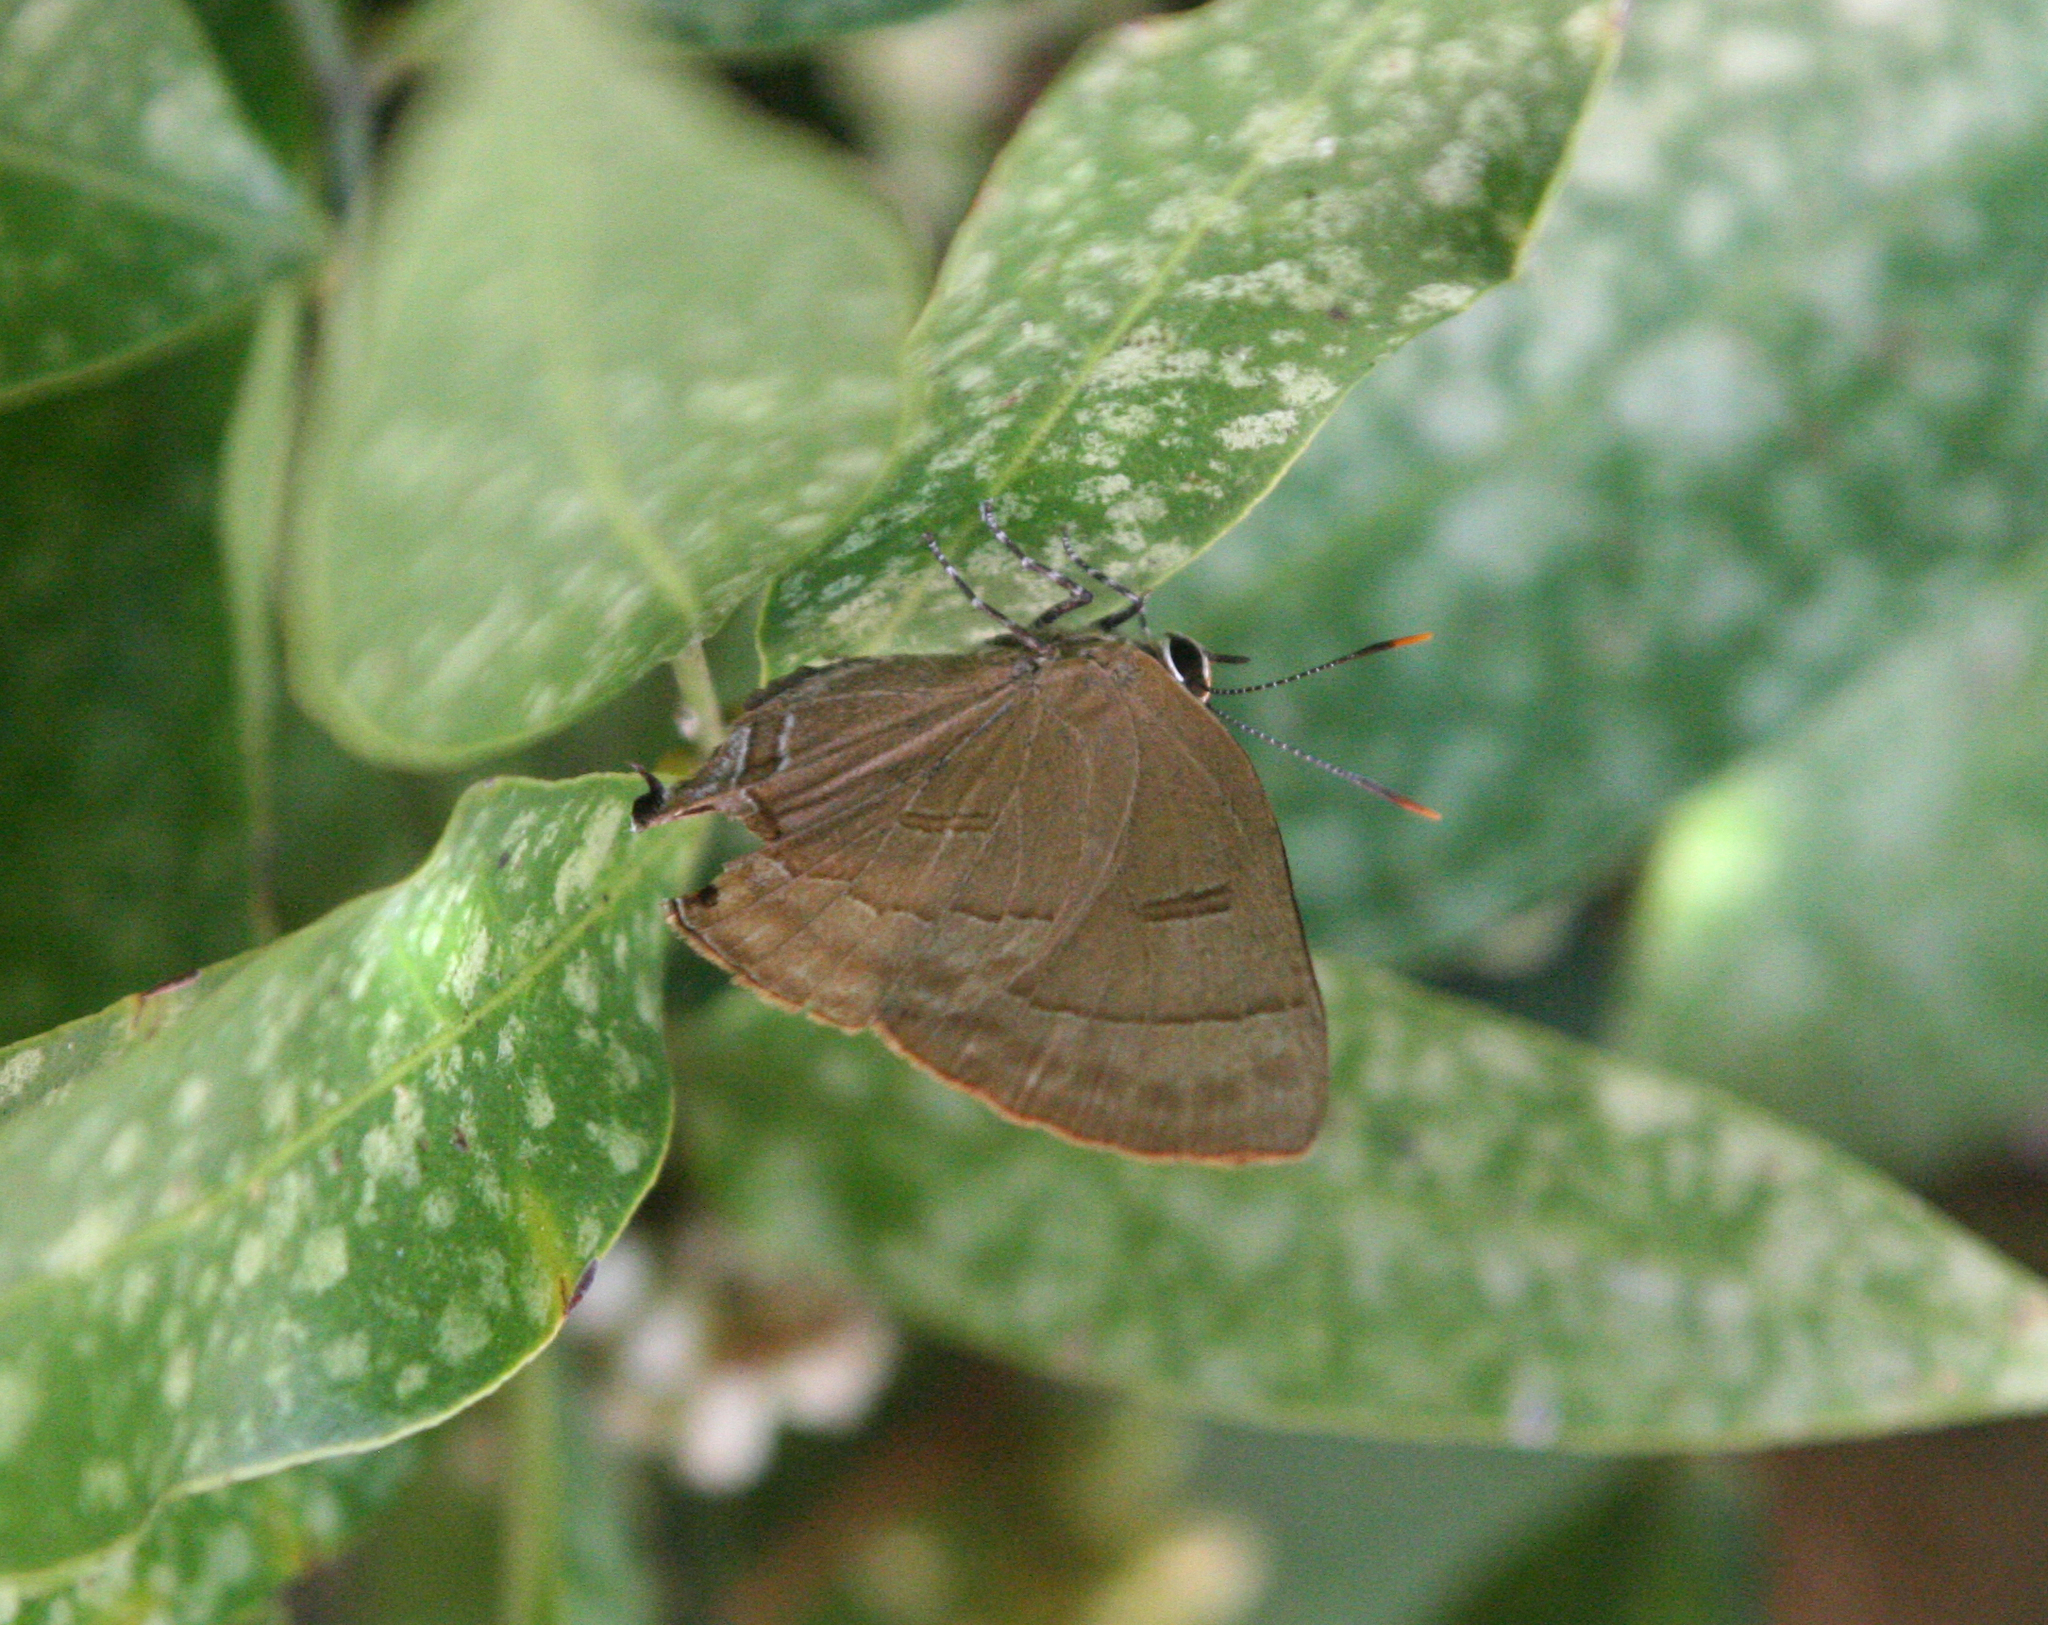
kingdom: Animalia
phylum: Arthropoda
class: Insecta
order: Lepidoptera
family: Lycaenidae
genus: Rapala
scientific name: Rapala manea
